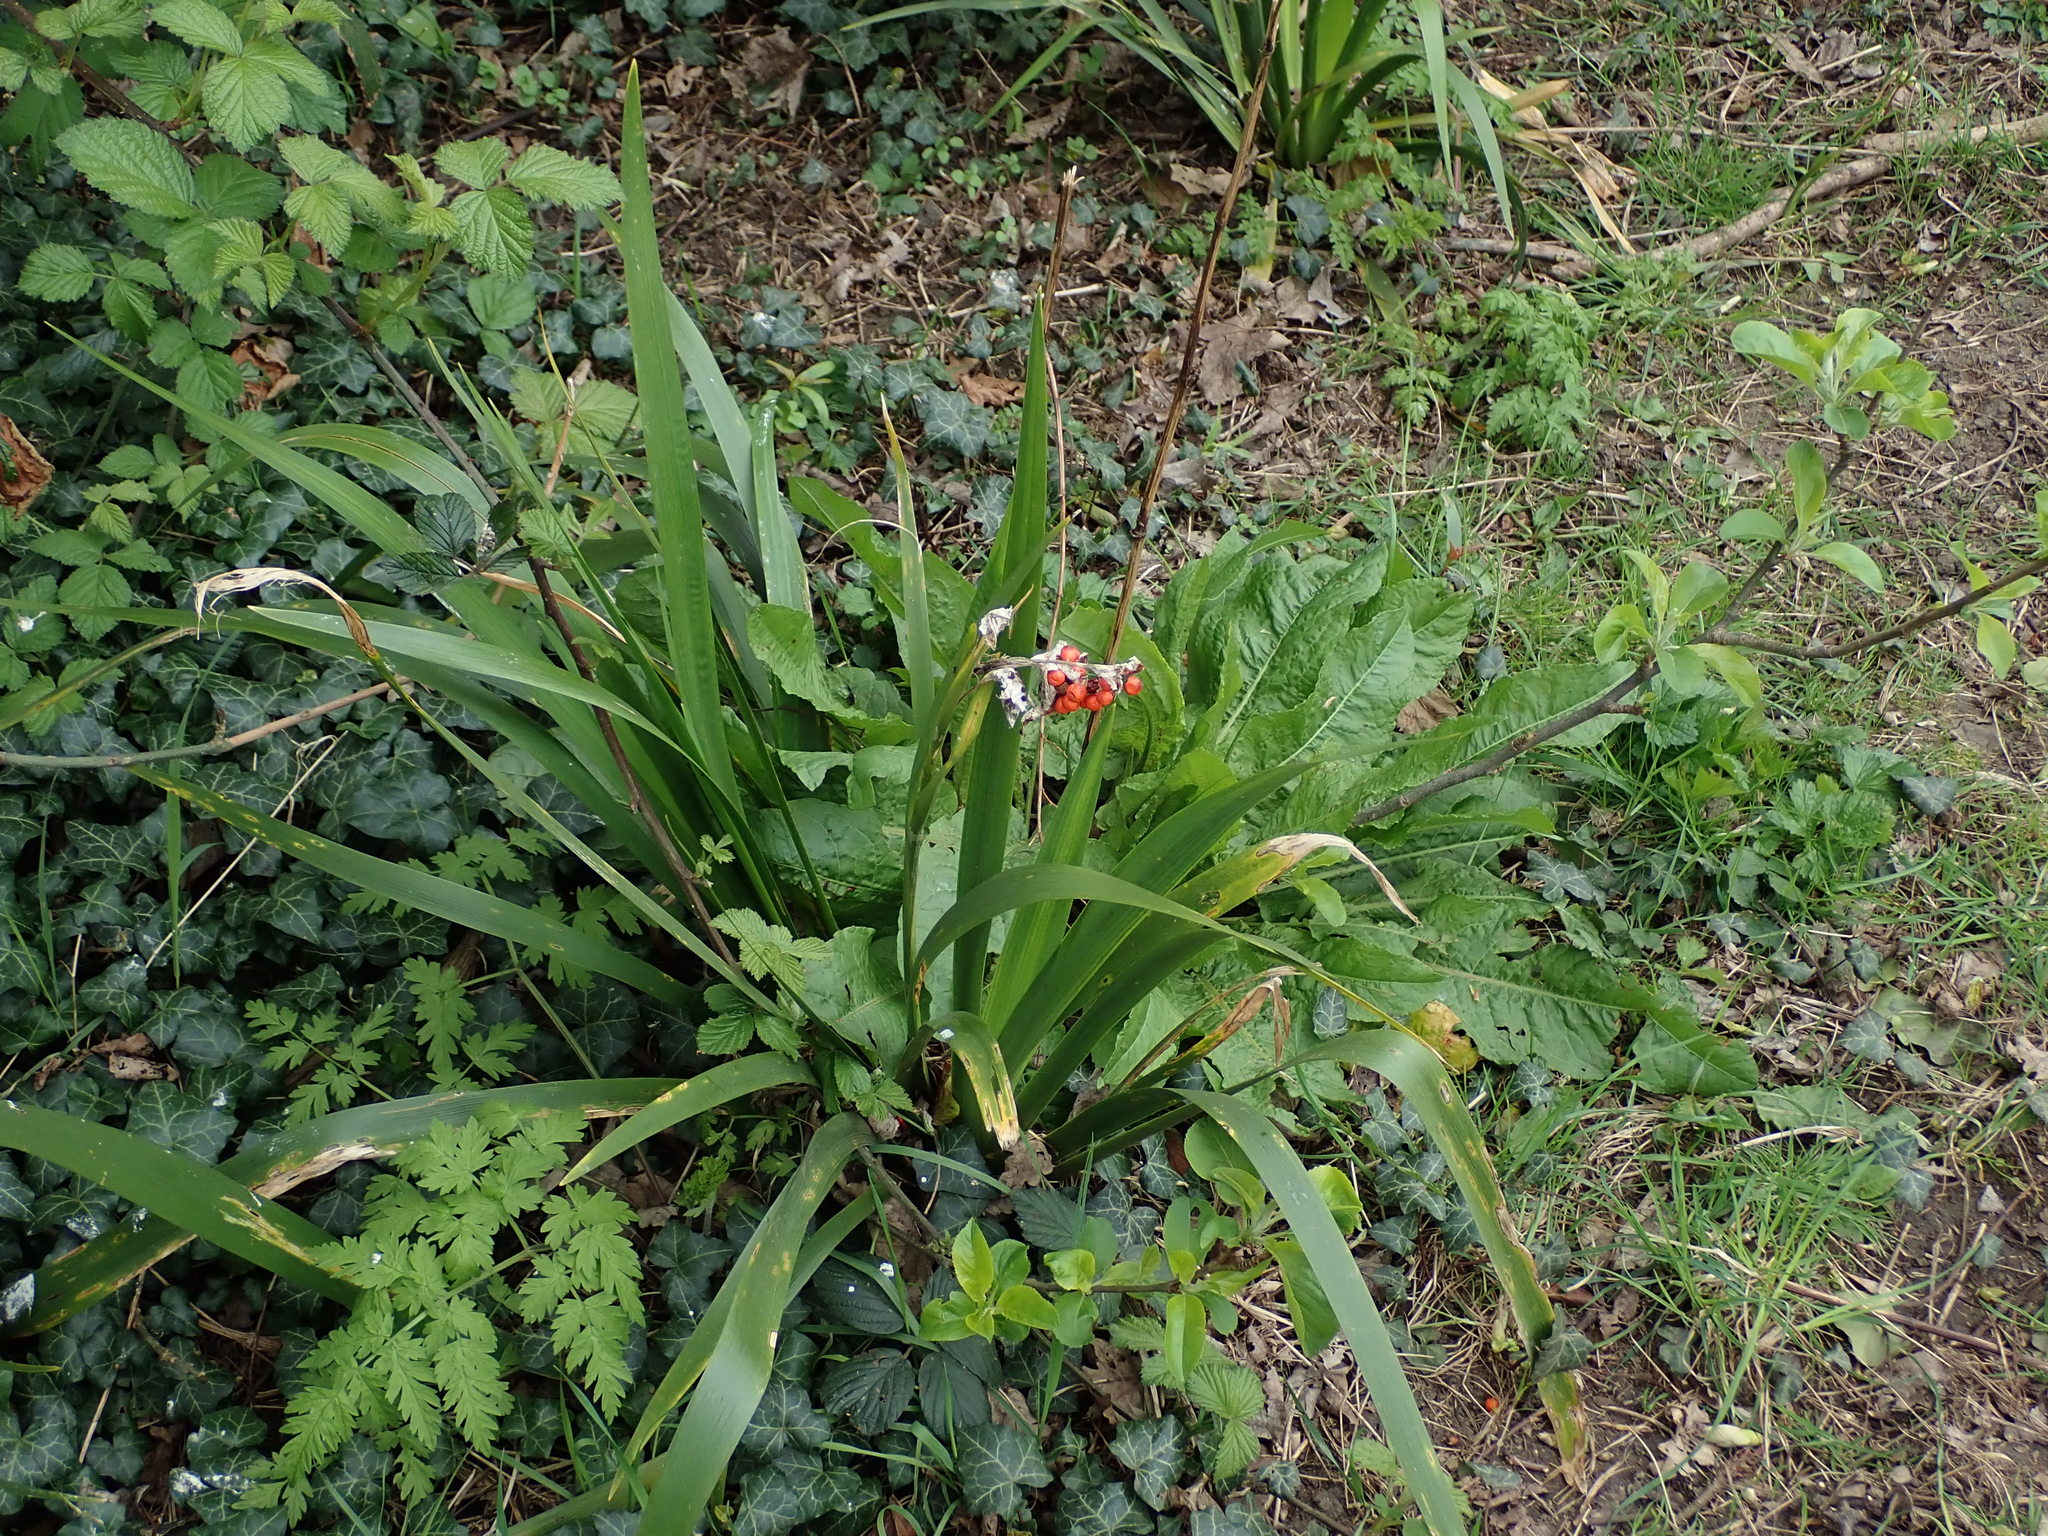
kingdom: Plantae
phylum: Tracheophyta
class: Liliopsida
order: Asparagales
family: Iridaceae
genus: Iris
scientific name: Iris foetidissima
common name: Stinking iris
